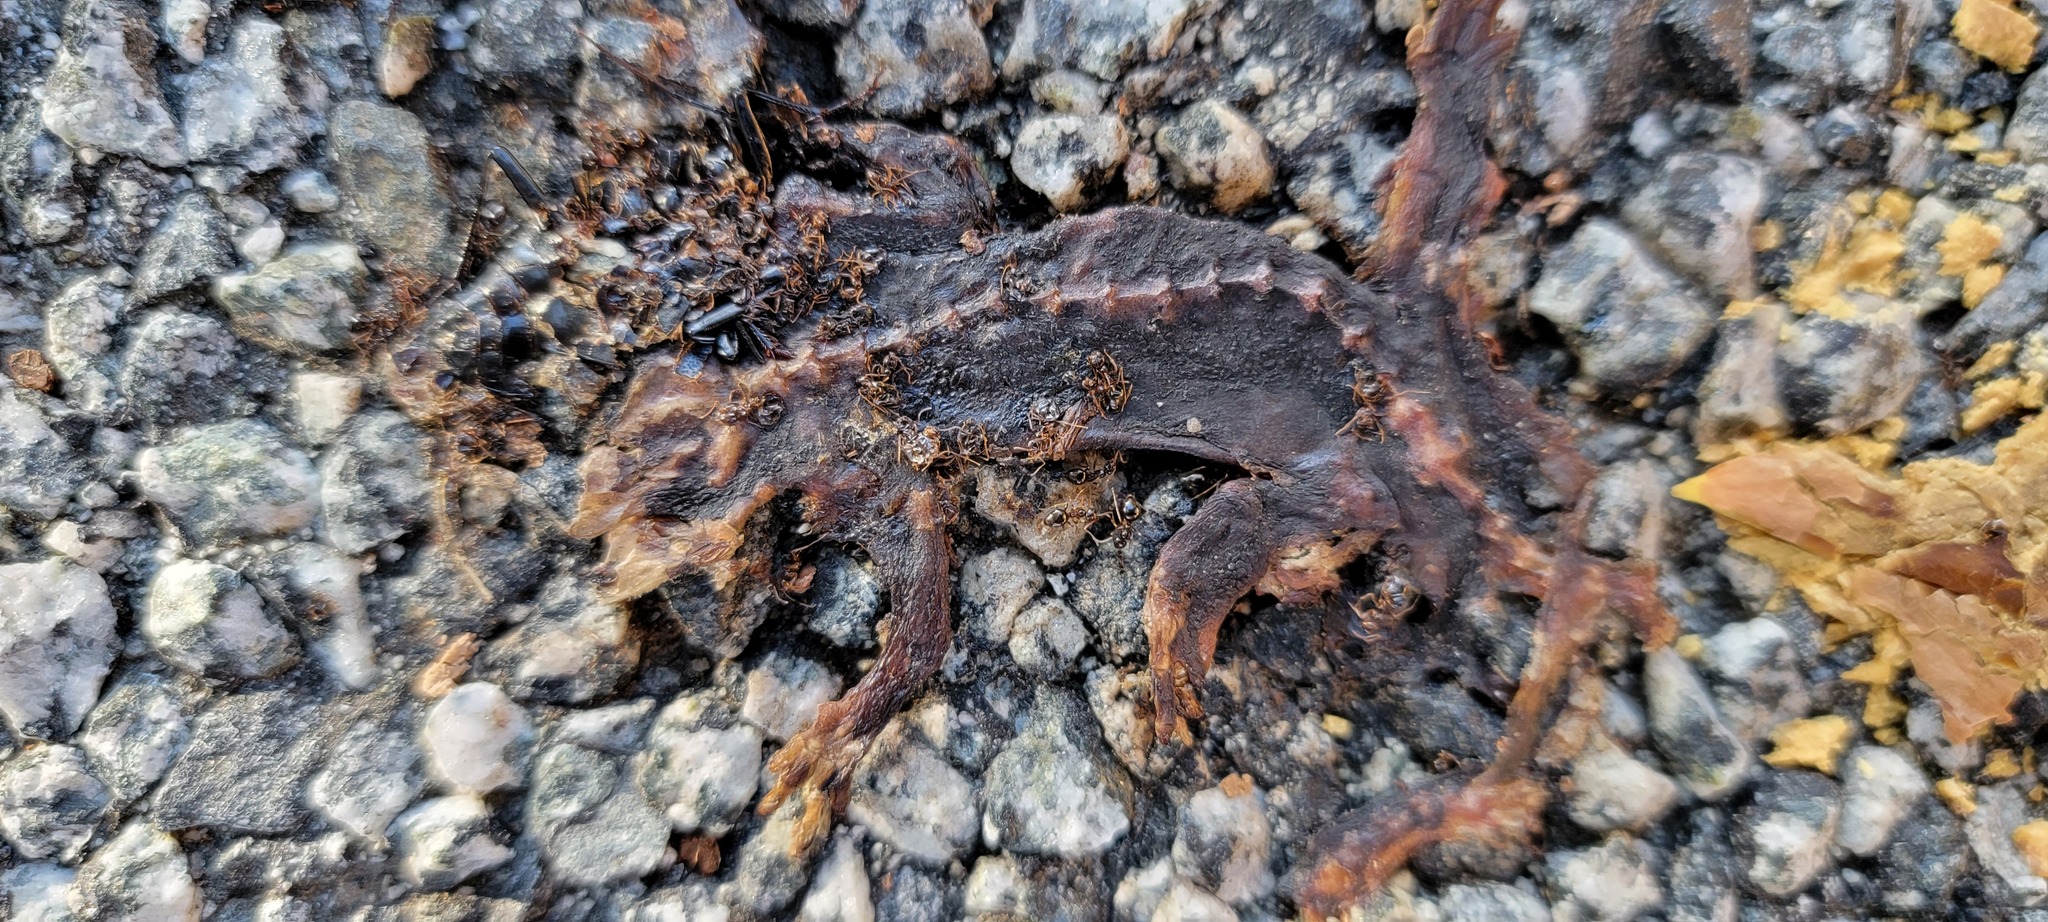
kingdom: Animalia
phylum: Chordata
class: Amphibia
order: Caudata
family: Salamandridae
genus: Taricha
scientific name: Taricha
